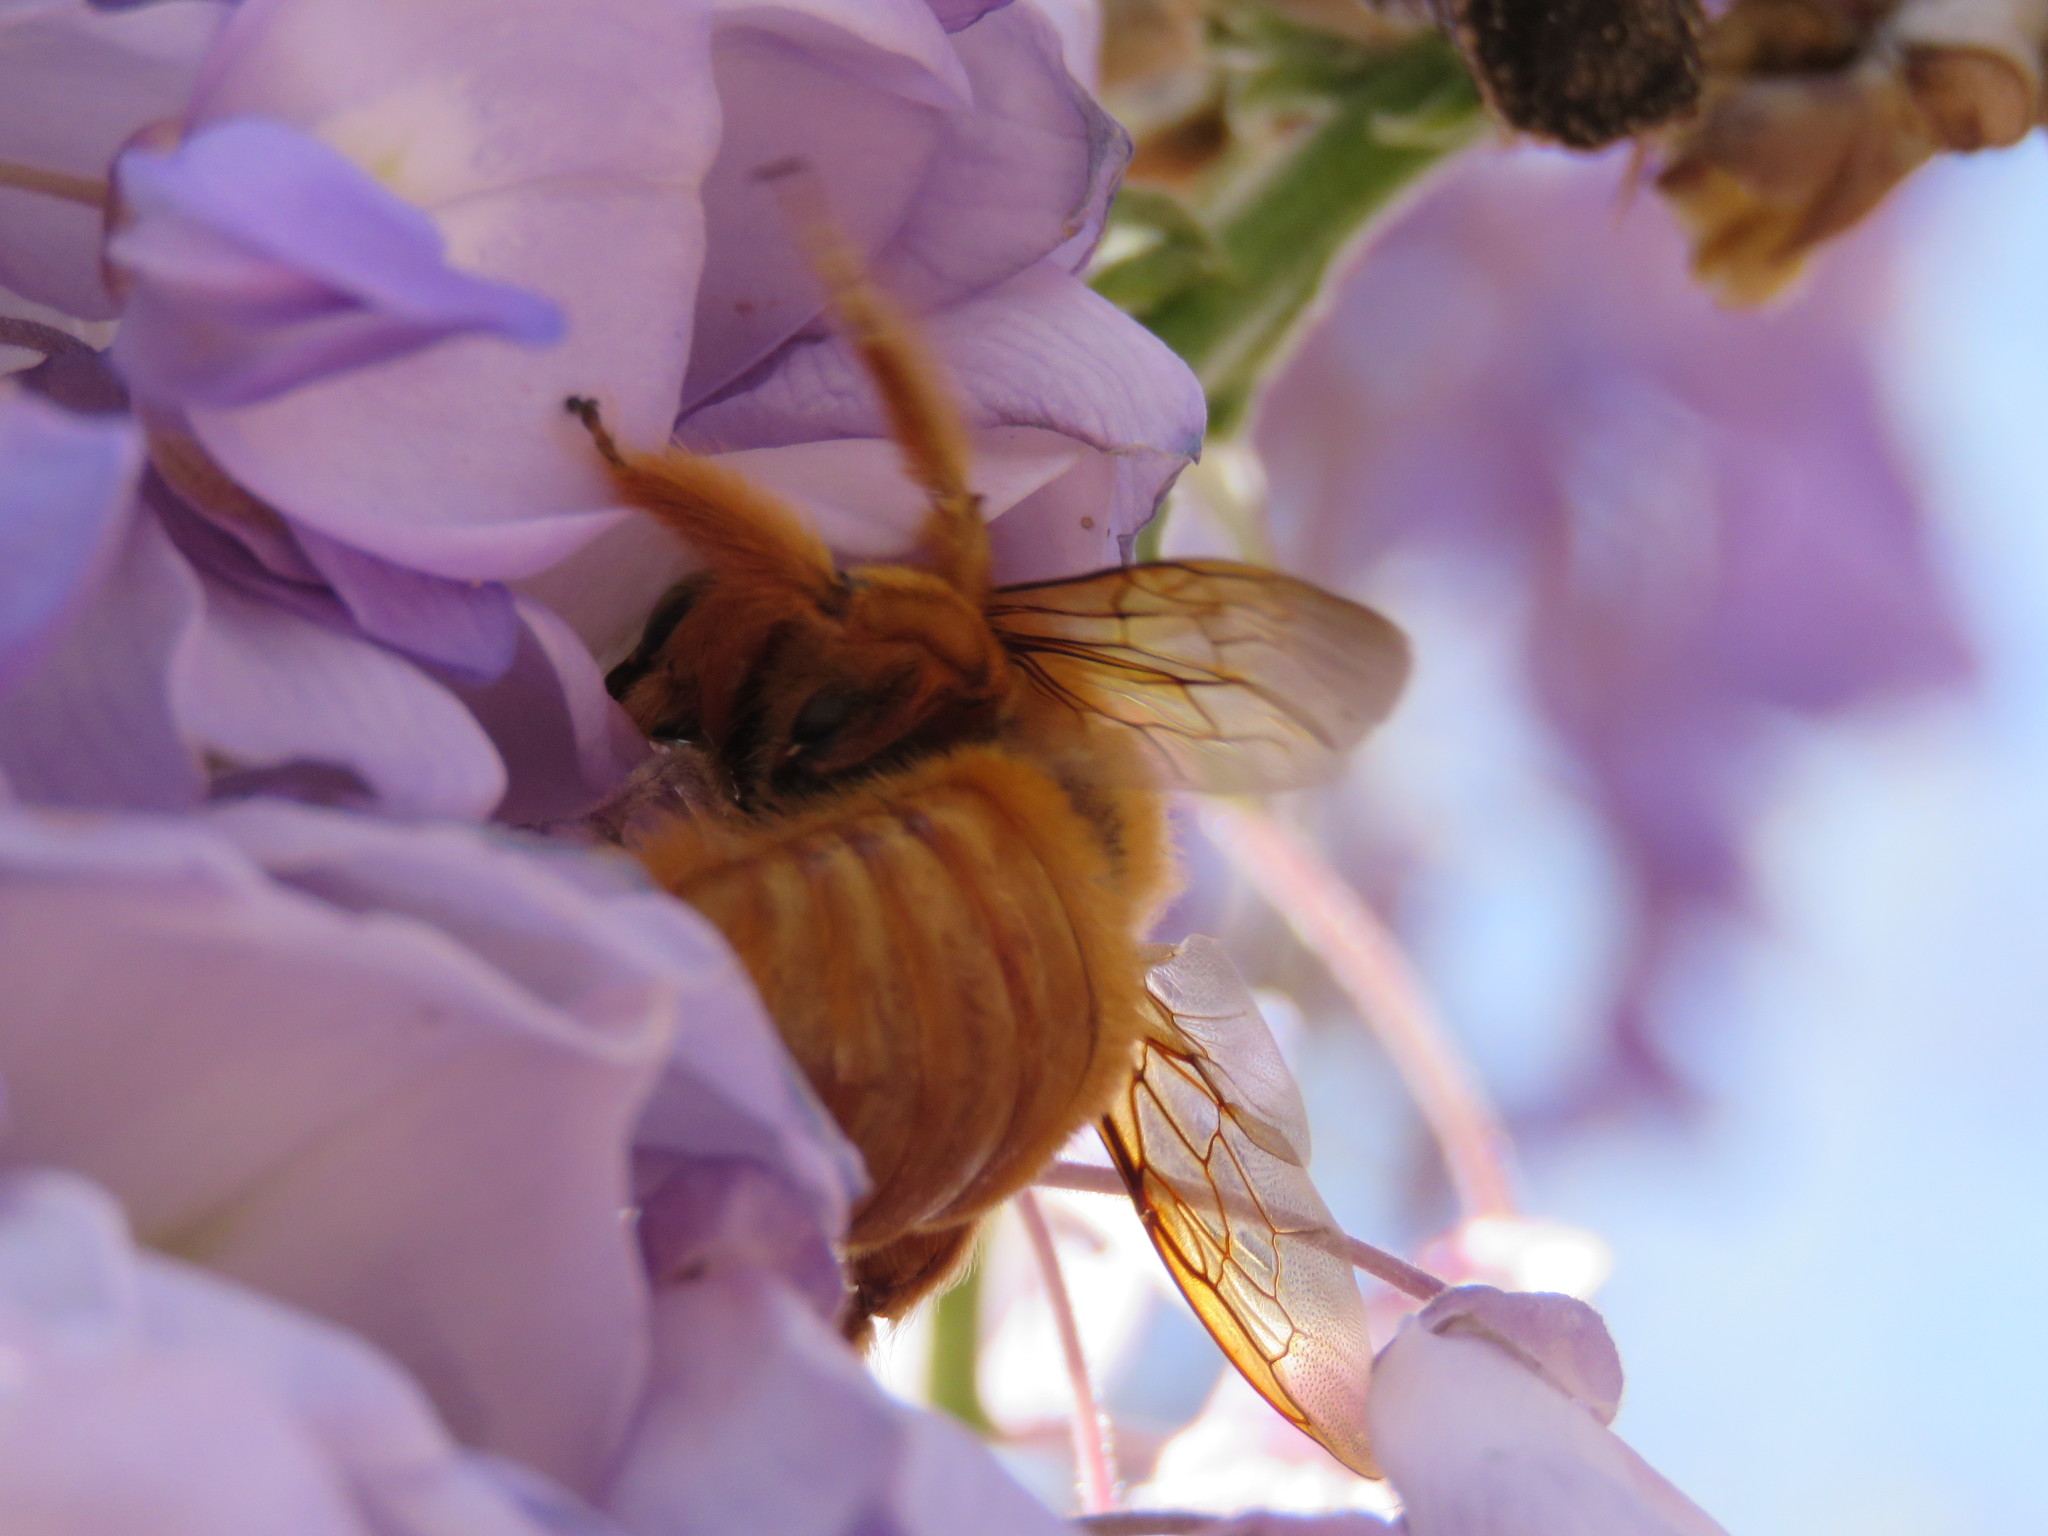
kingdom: Animalia
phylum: Arthropoda
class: Insecta
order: Hymenoptera
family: Apidae
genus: Xylocopa
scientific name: Xylocopa sonorina
